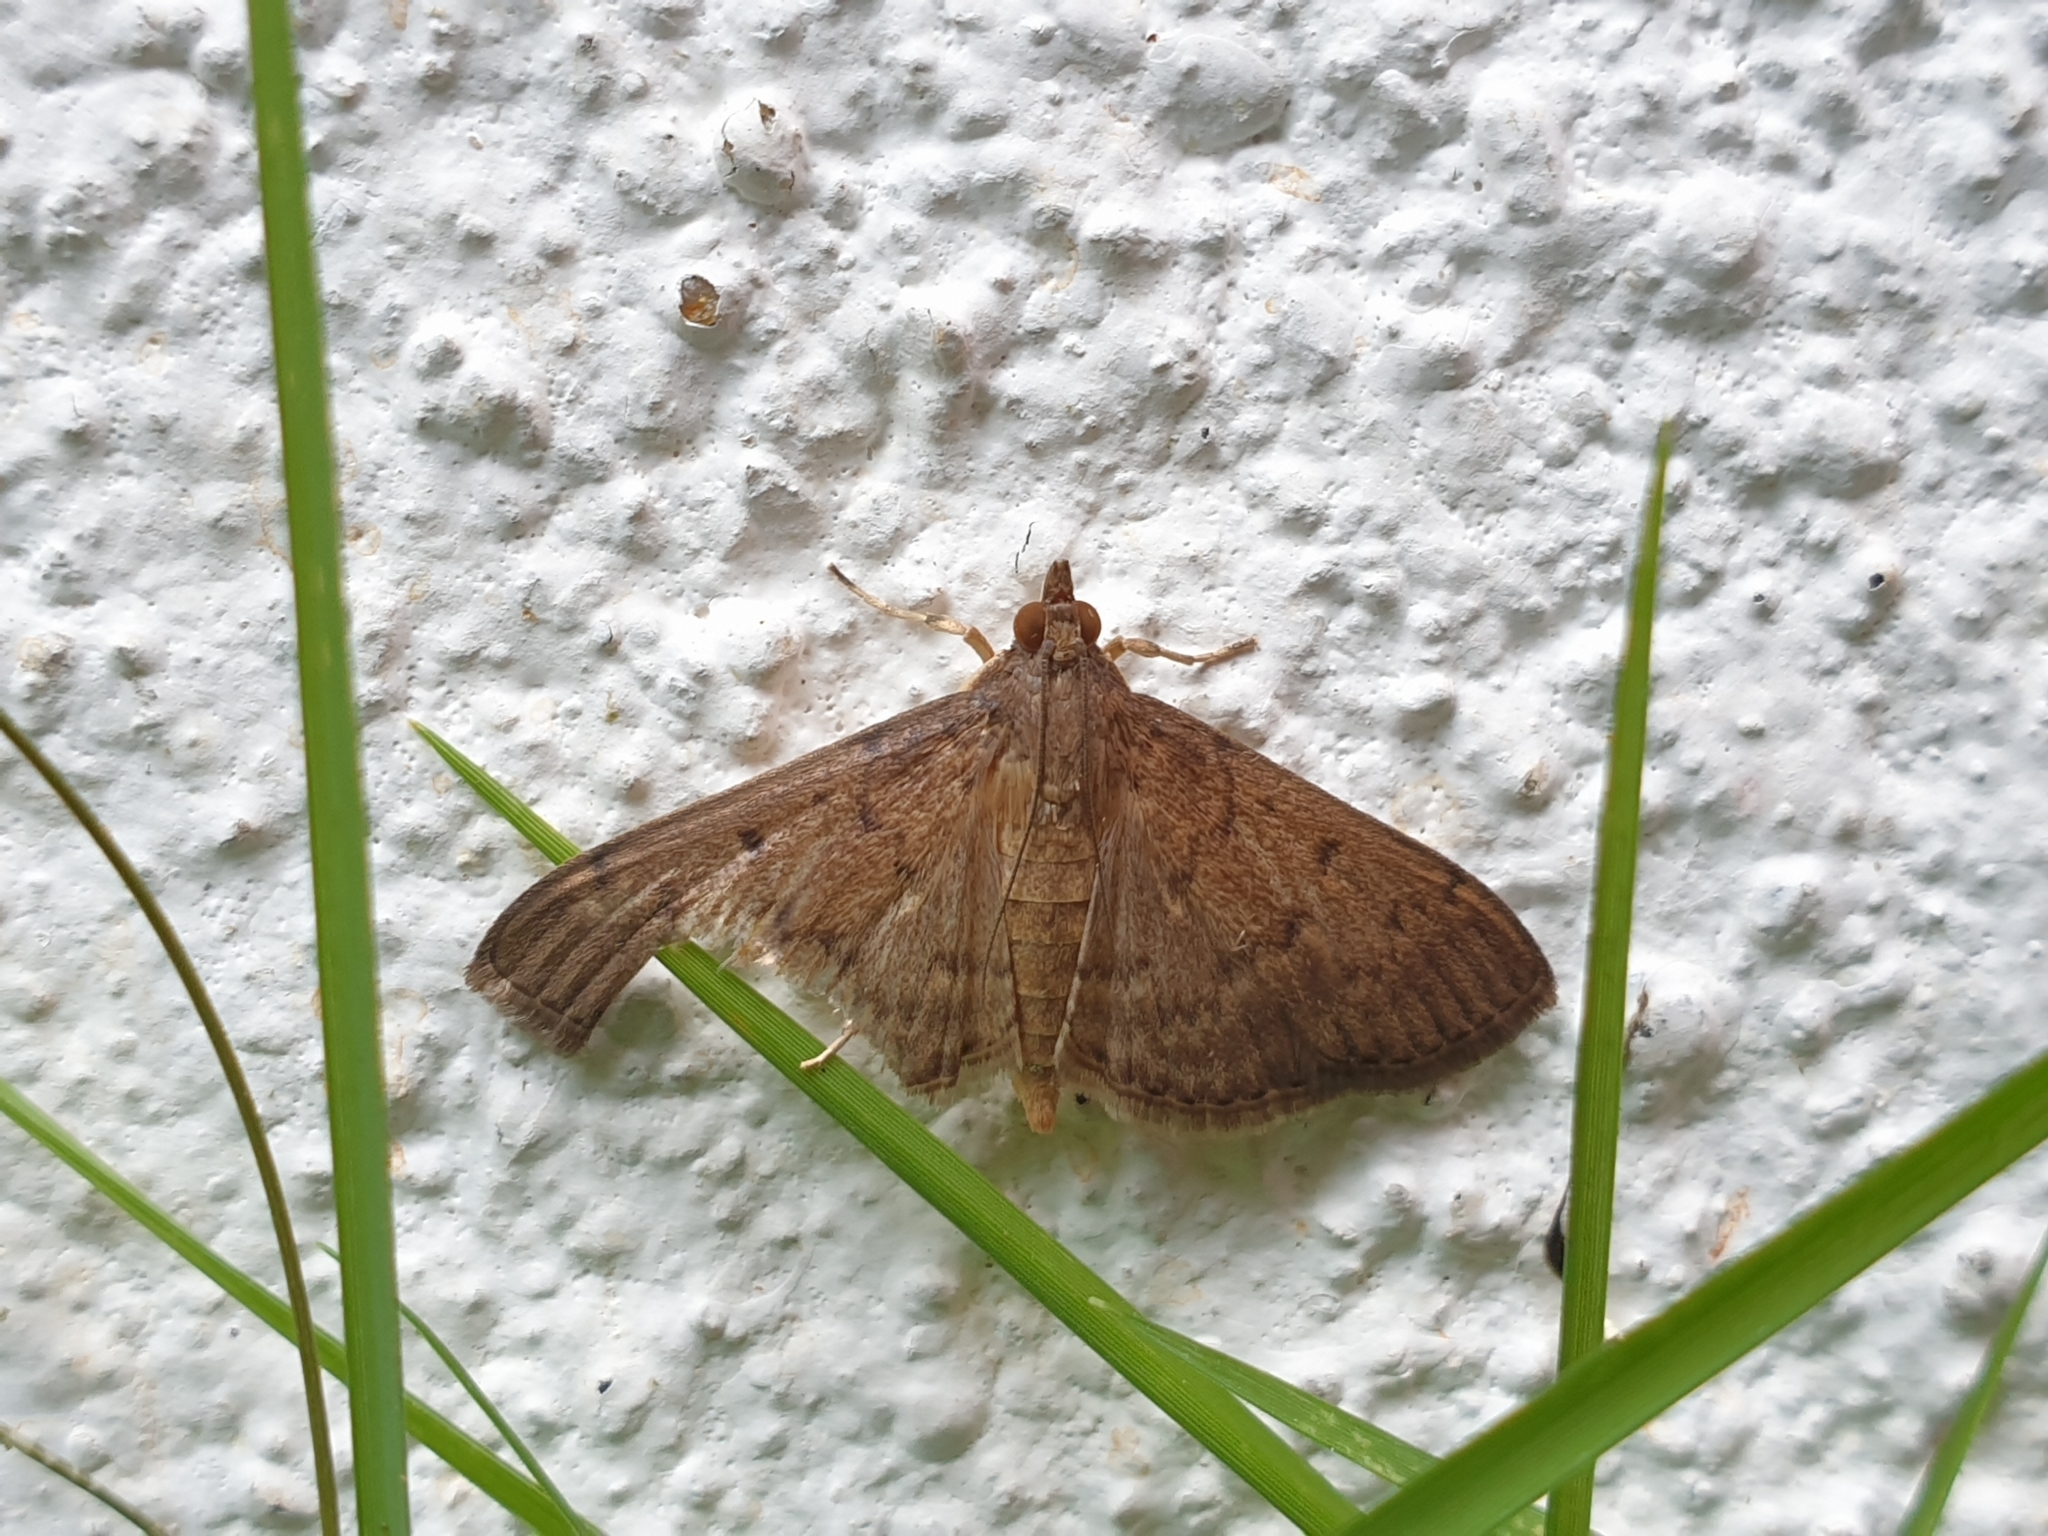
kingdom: Animalia
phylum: Arthropoda
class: Insecta
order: Lepidoptera
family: Crambidae
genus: Herpetogramma
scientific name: Herpetogramma licarsisalis
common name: Grass webworm
